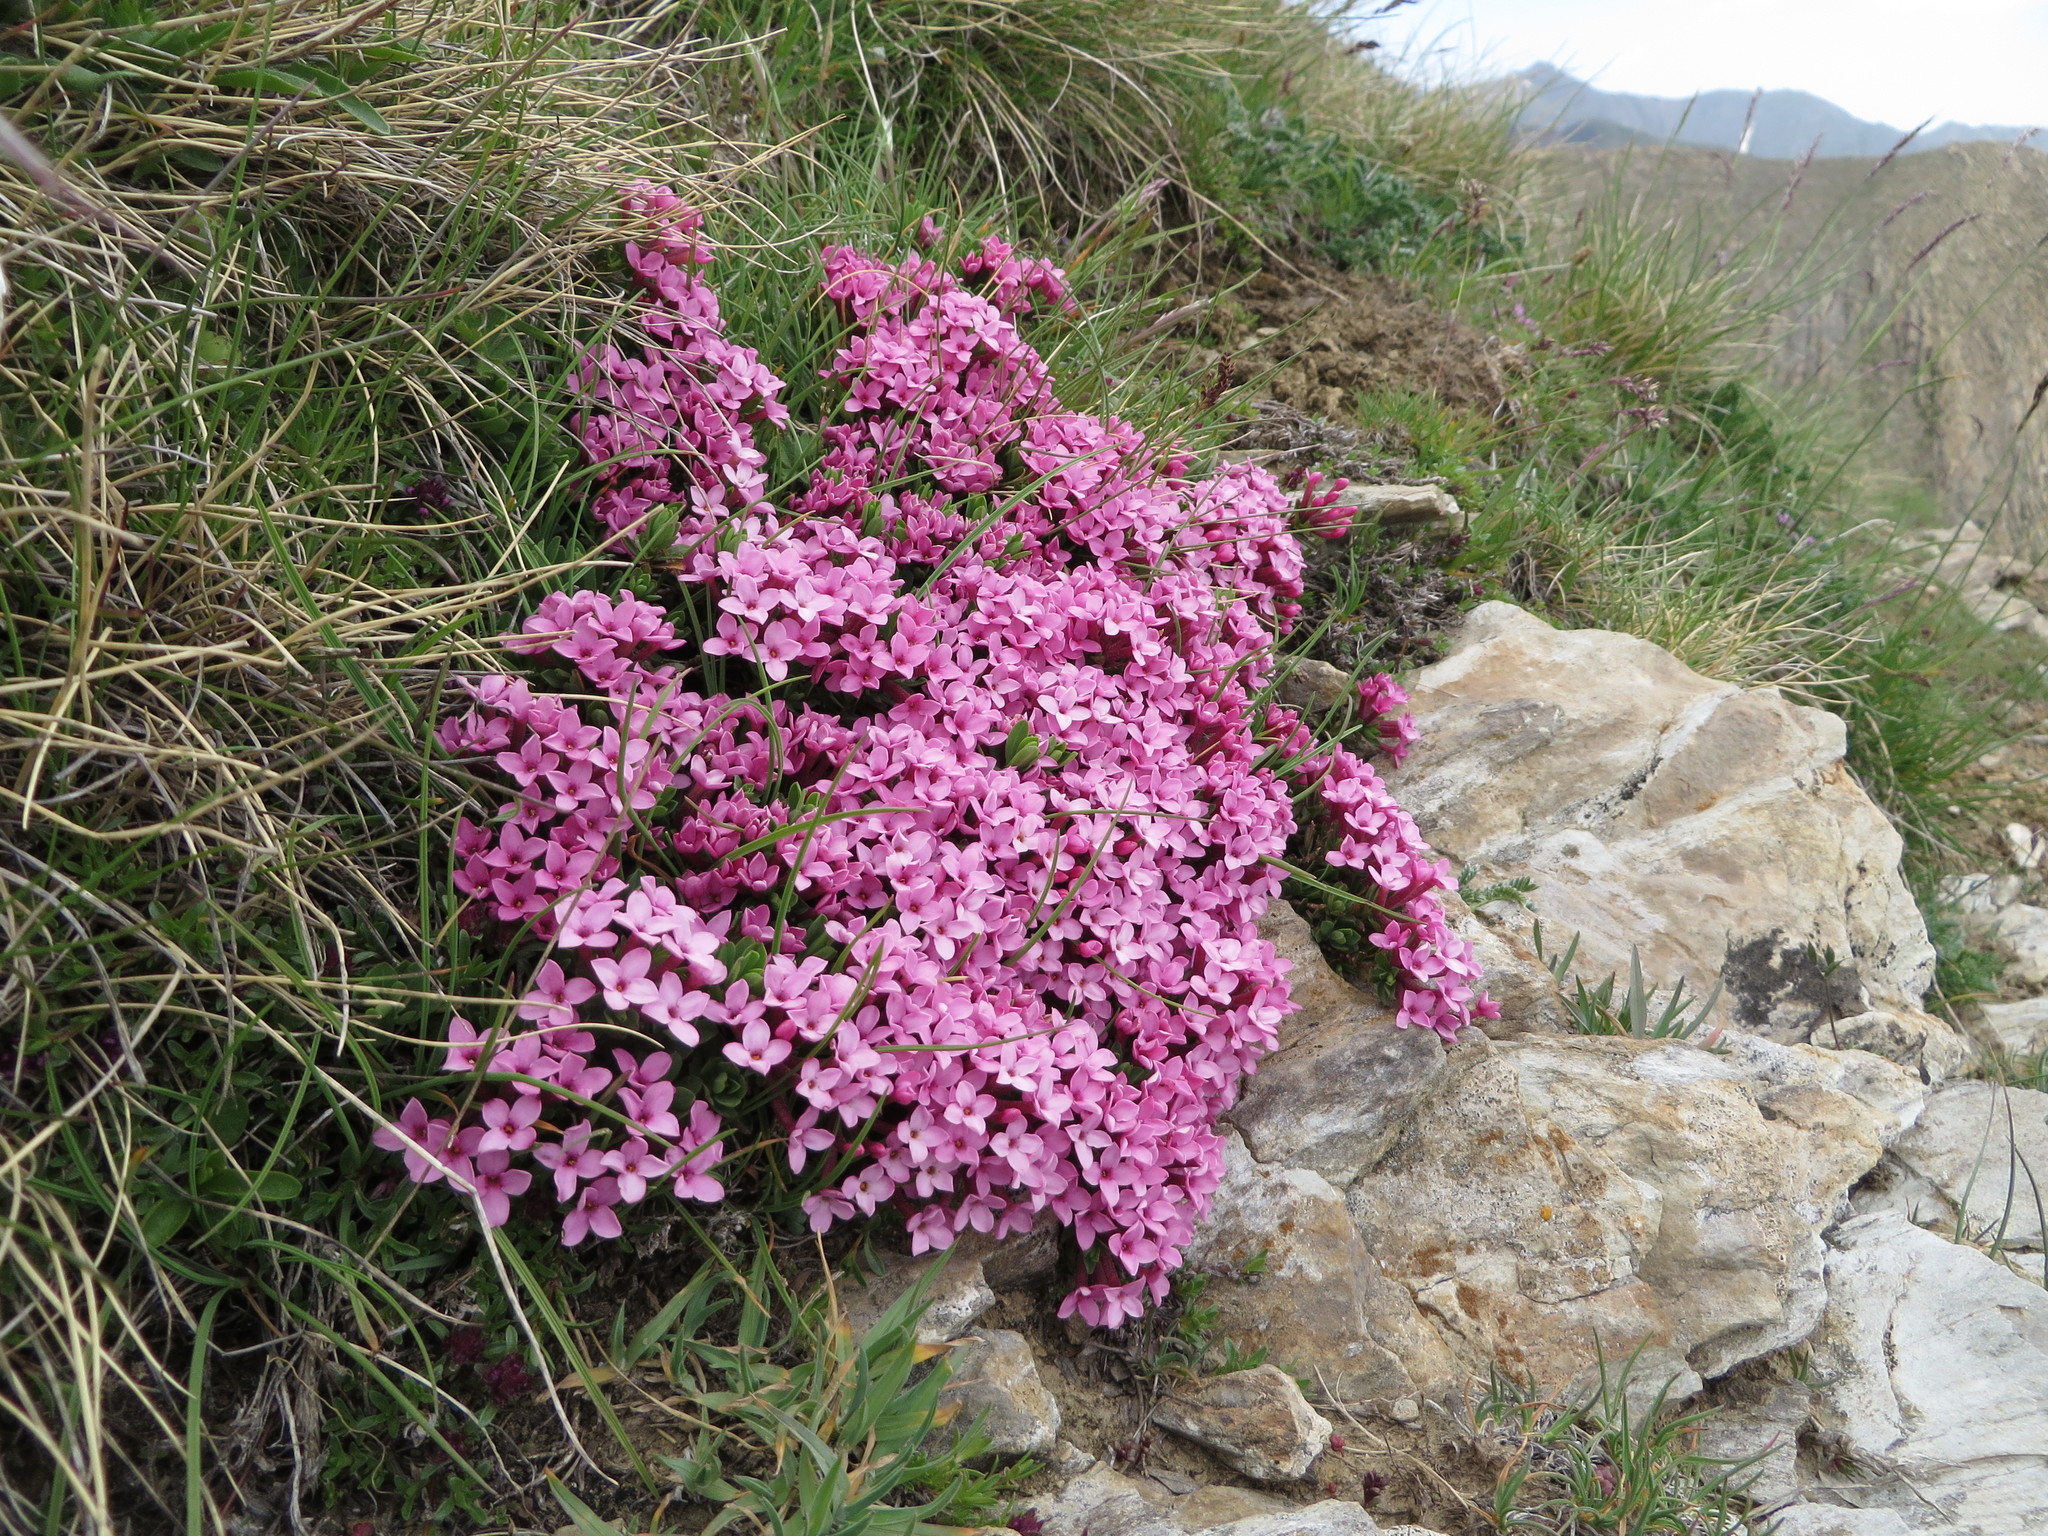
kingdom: Plantae
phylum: Tracheophyta
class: Magnoliopsida
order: Malvales
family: Thymelaeaceae
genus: Daphne
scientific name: Daphne cneorum
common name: Garland-flower
